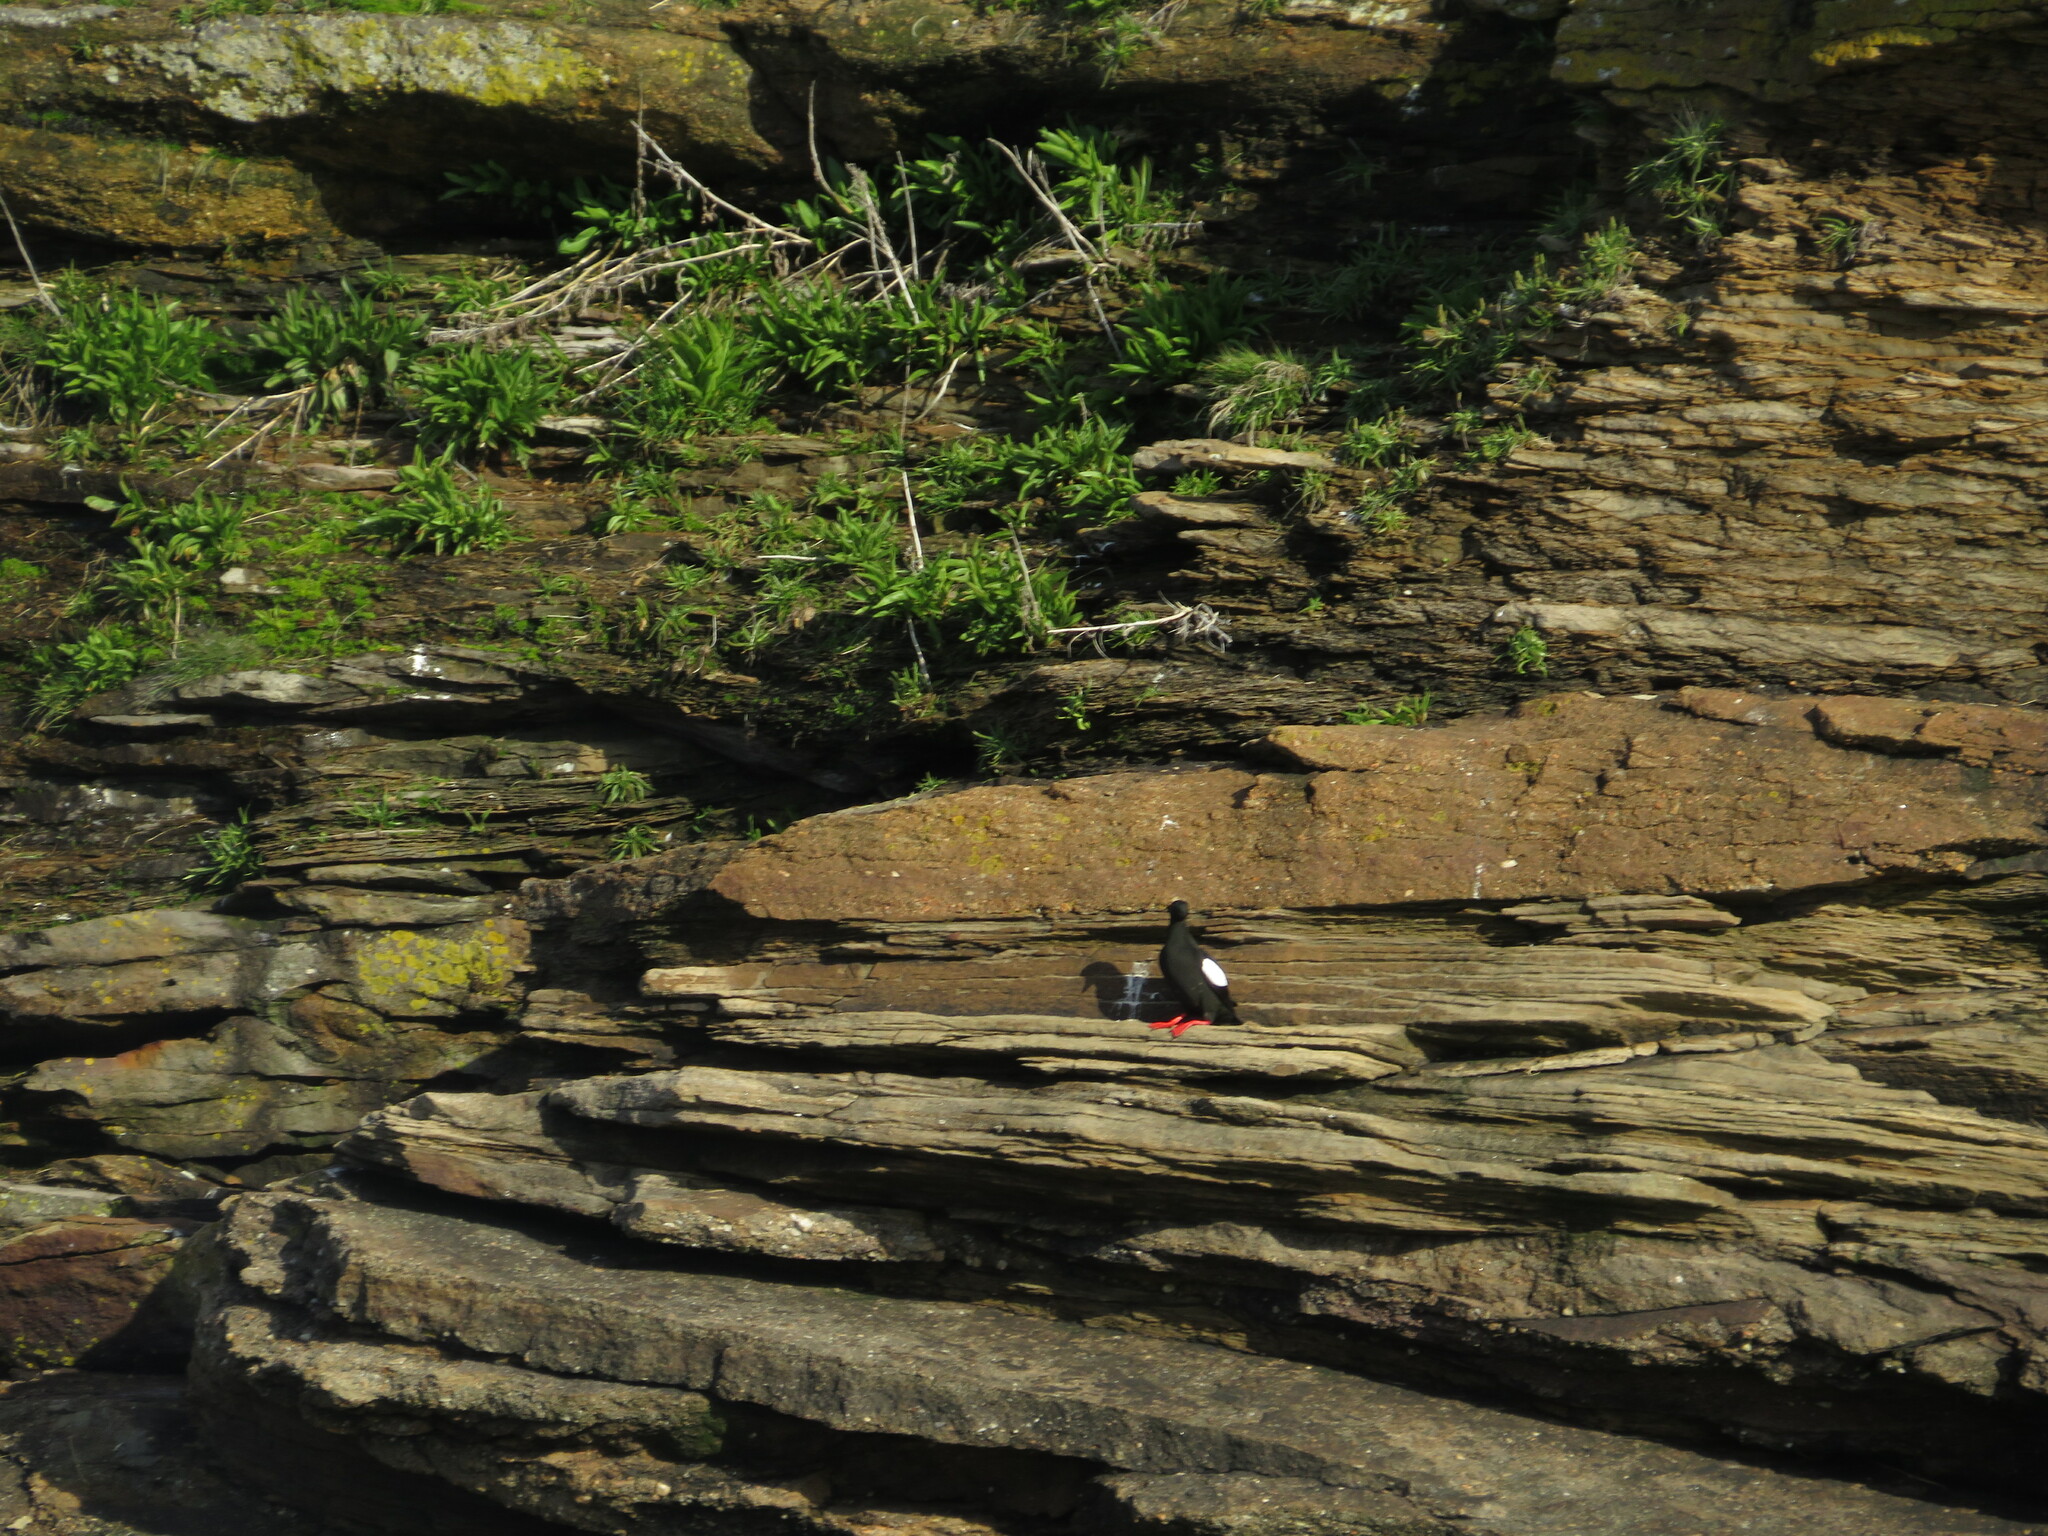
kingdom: Animalia
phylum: Chordata
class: Aves
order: Charadriiformes
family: Alcidae
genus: Cepphus
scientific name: Cepphus grylle
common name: Black guillemot
